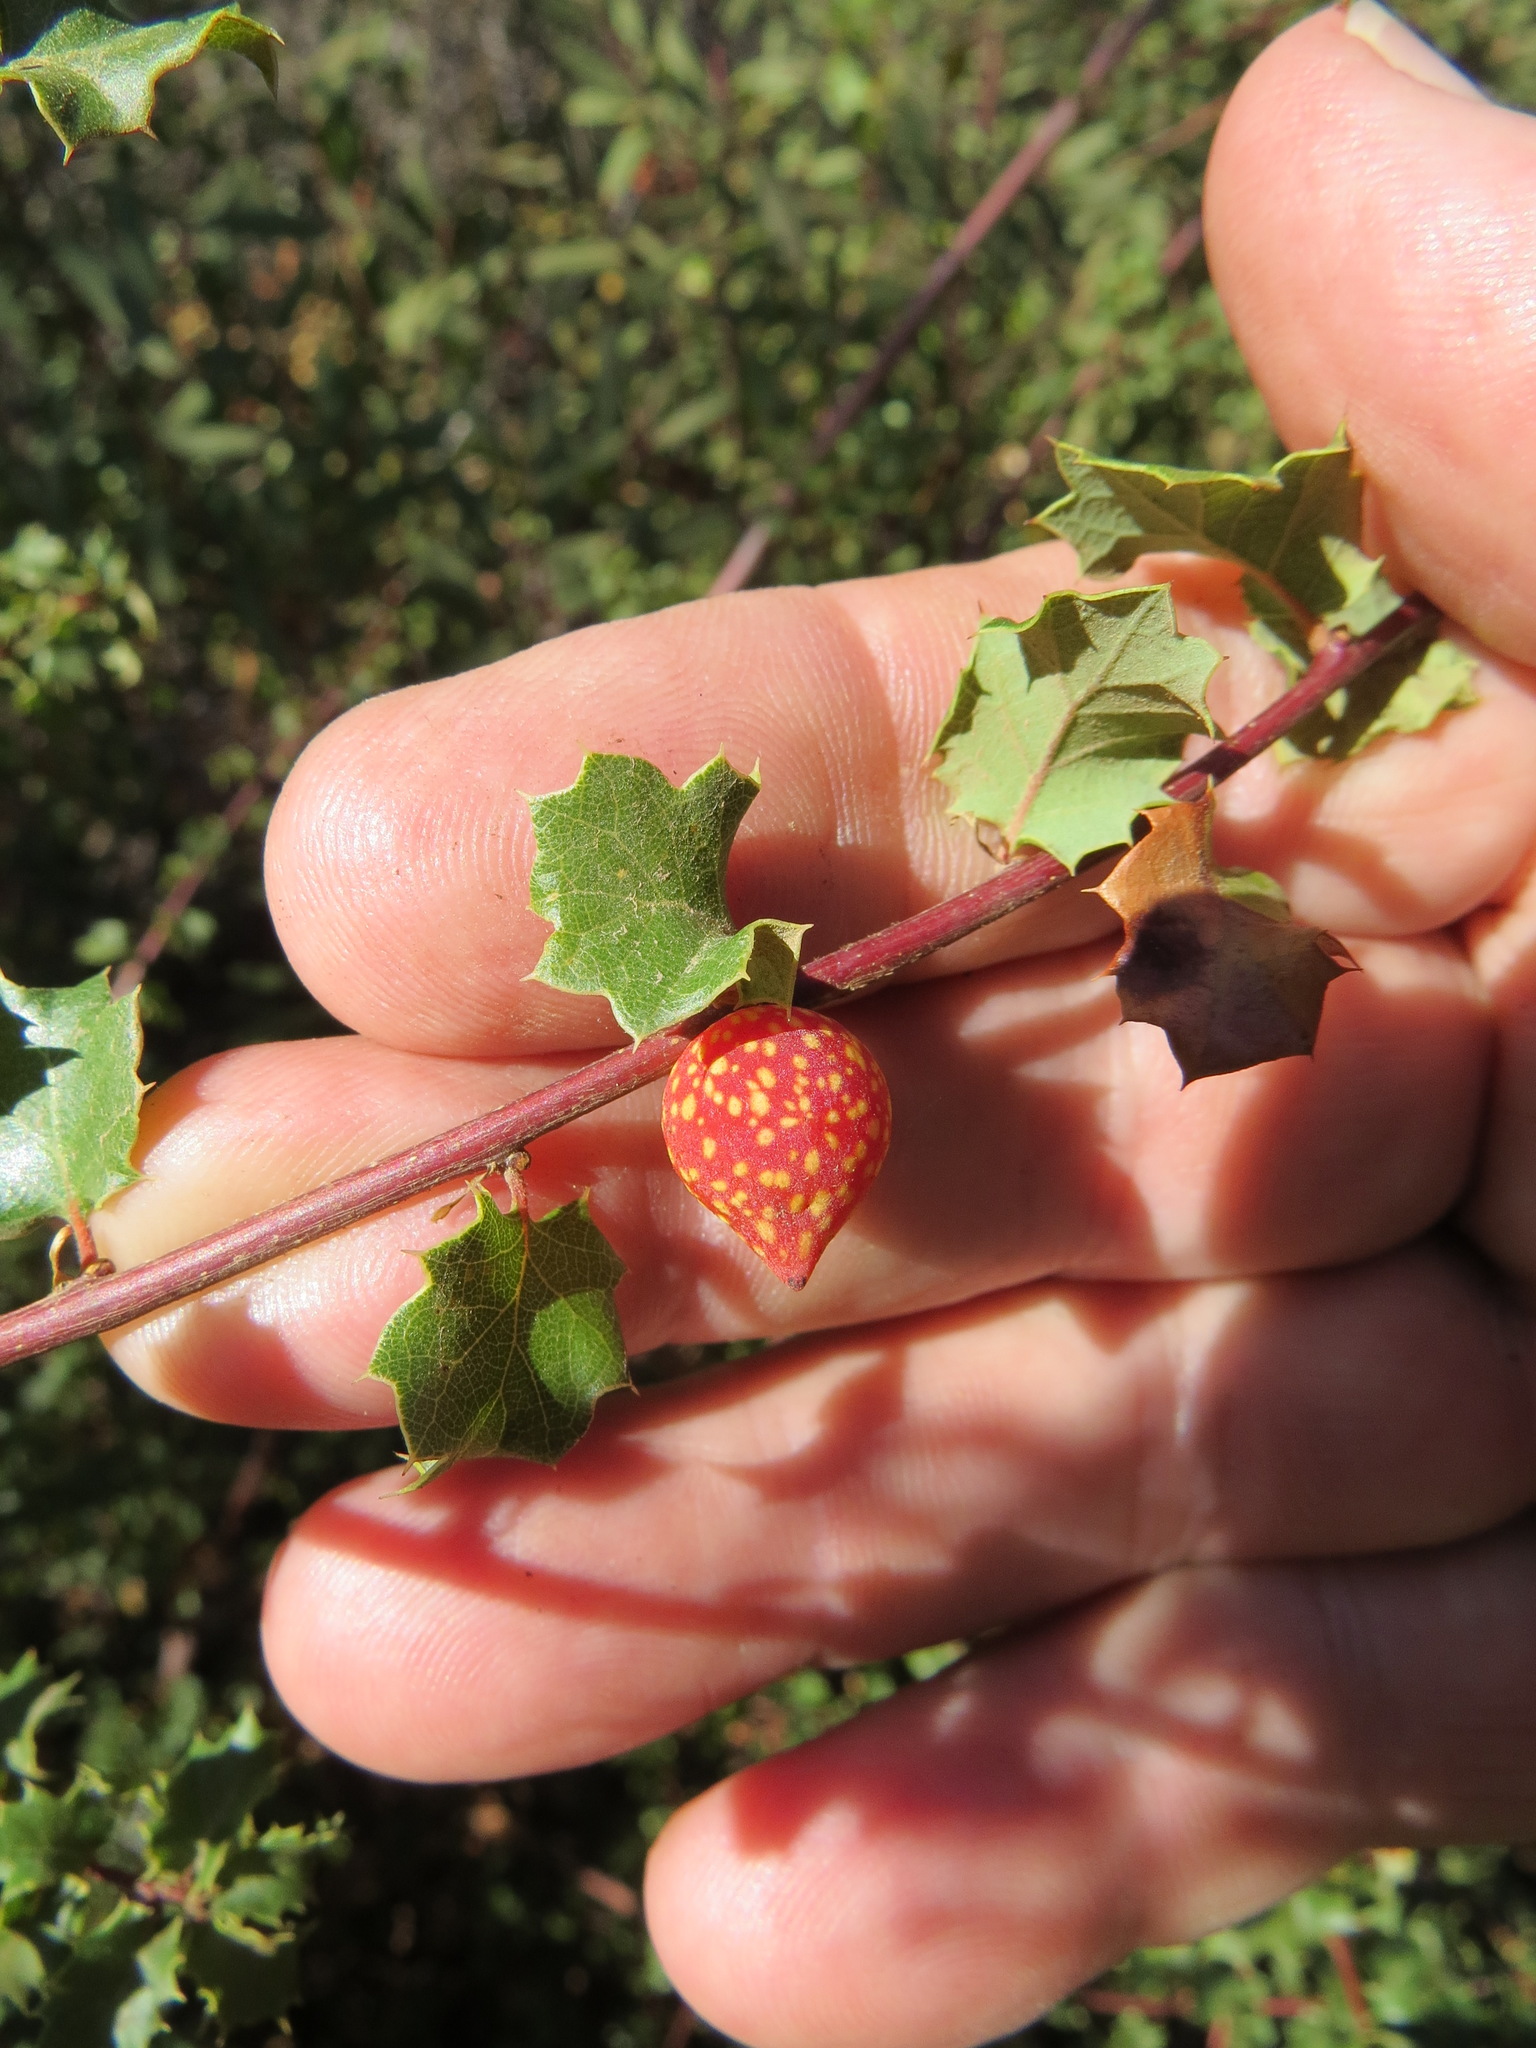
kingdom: Animalia
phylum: Arthropoda
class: Insecta
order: Hymenoptera
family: Cynipidae
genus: Burnettweldia
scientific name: Burnettweldia
